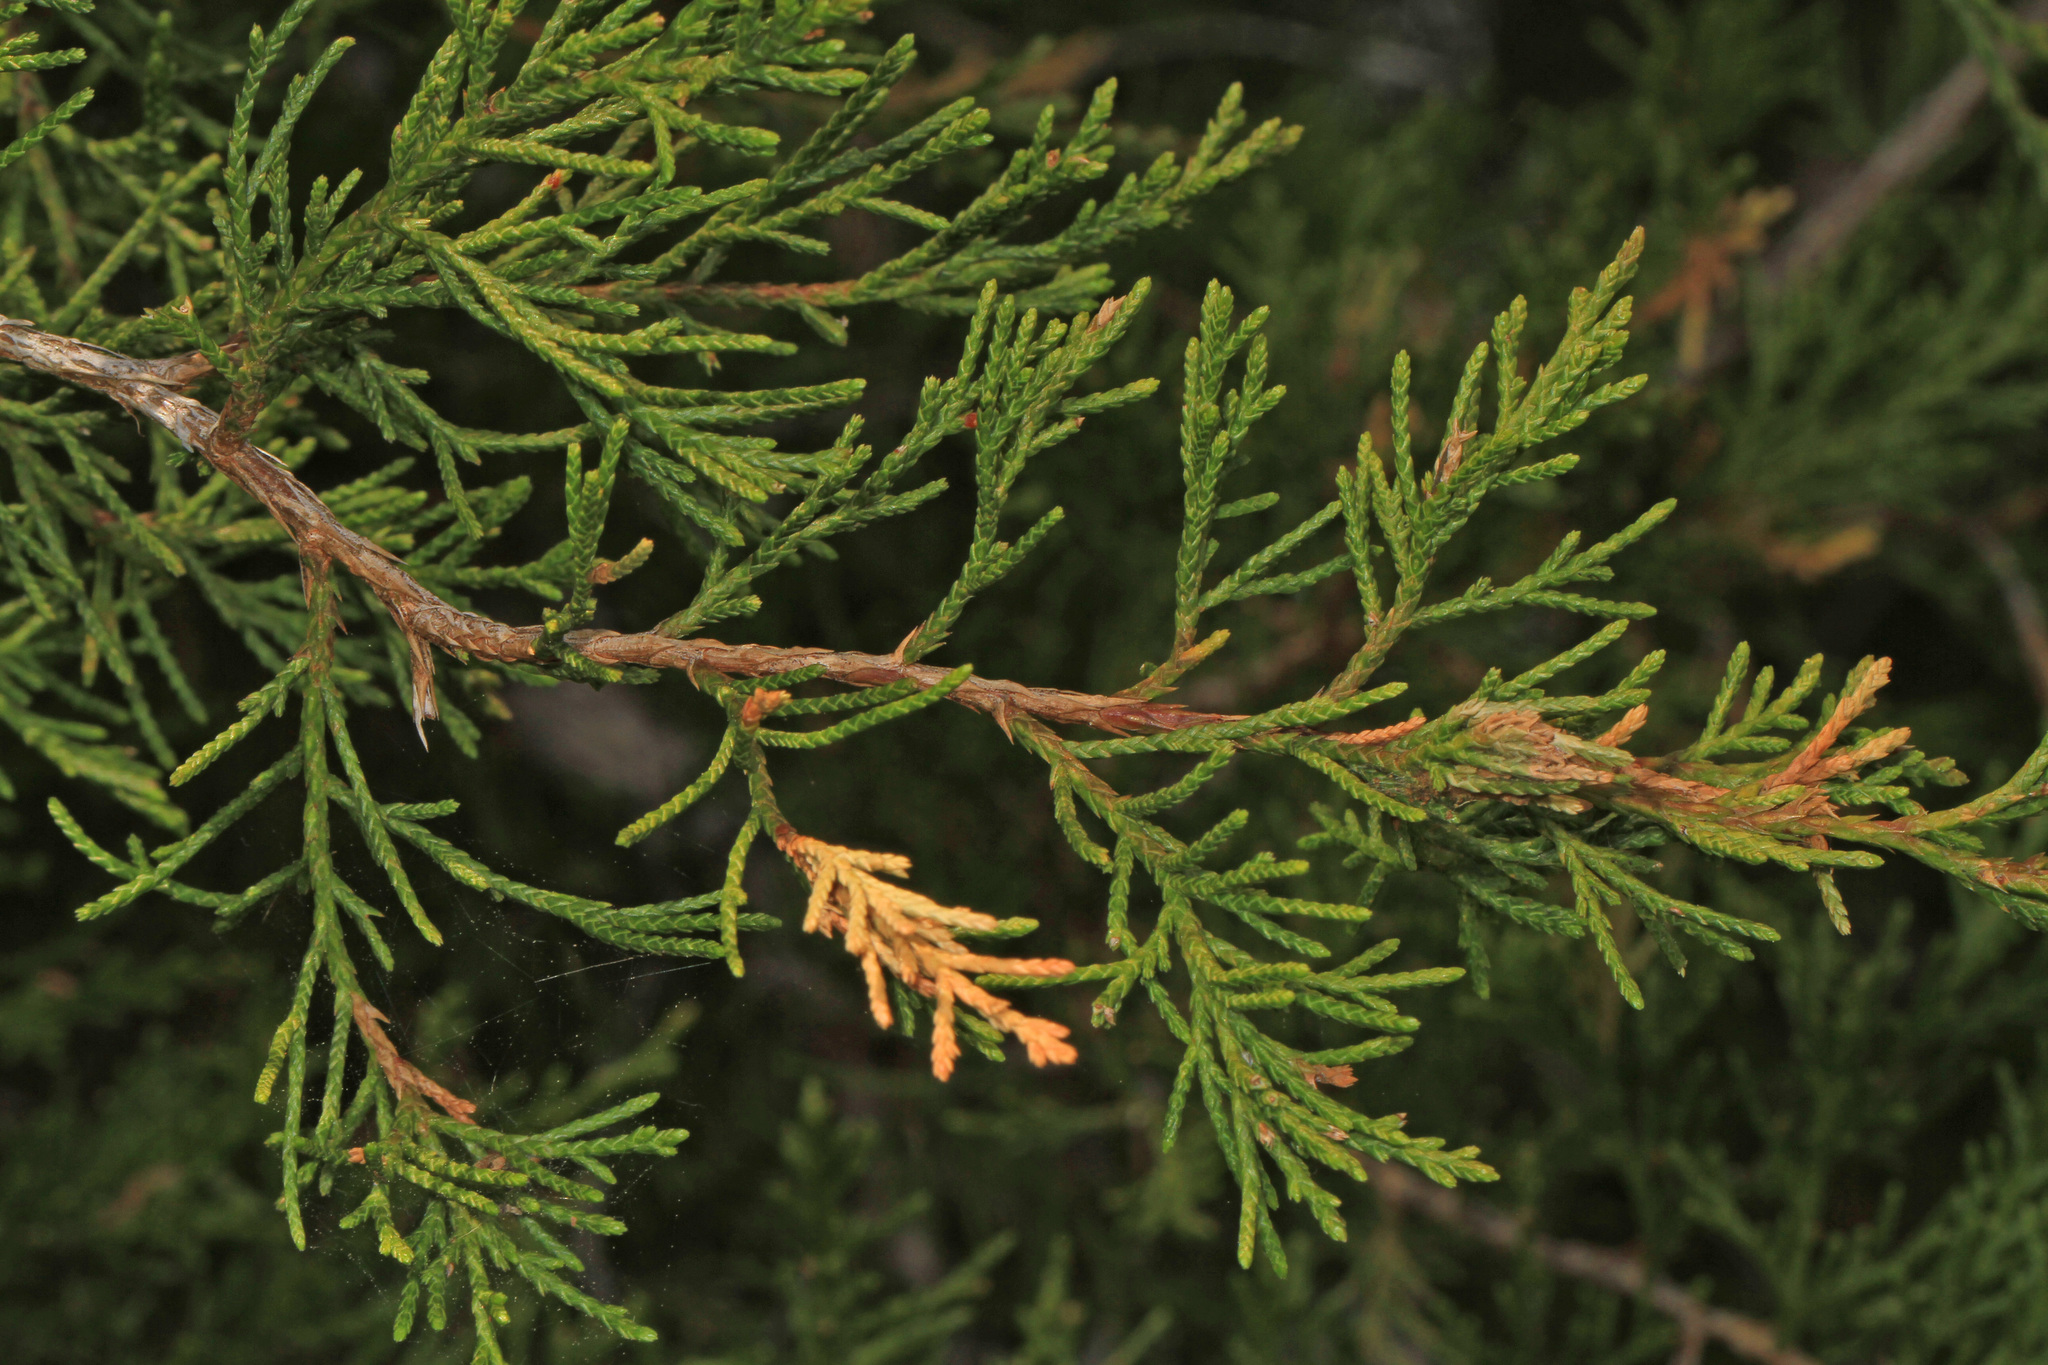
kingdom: Plantae
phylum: Tracheophyta
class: Pinopsida
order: Pinales
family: Cupressaceae
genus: Juniperus
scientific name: Juniperus virginiana
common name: Red juniper
